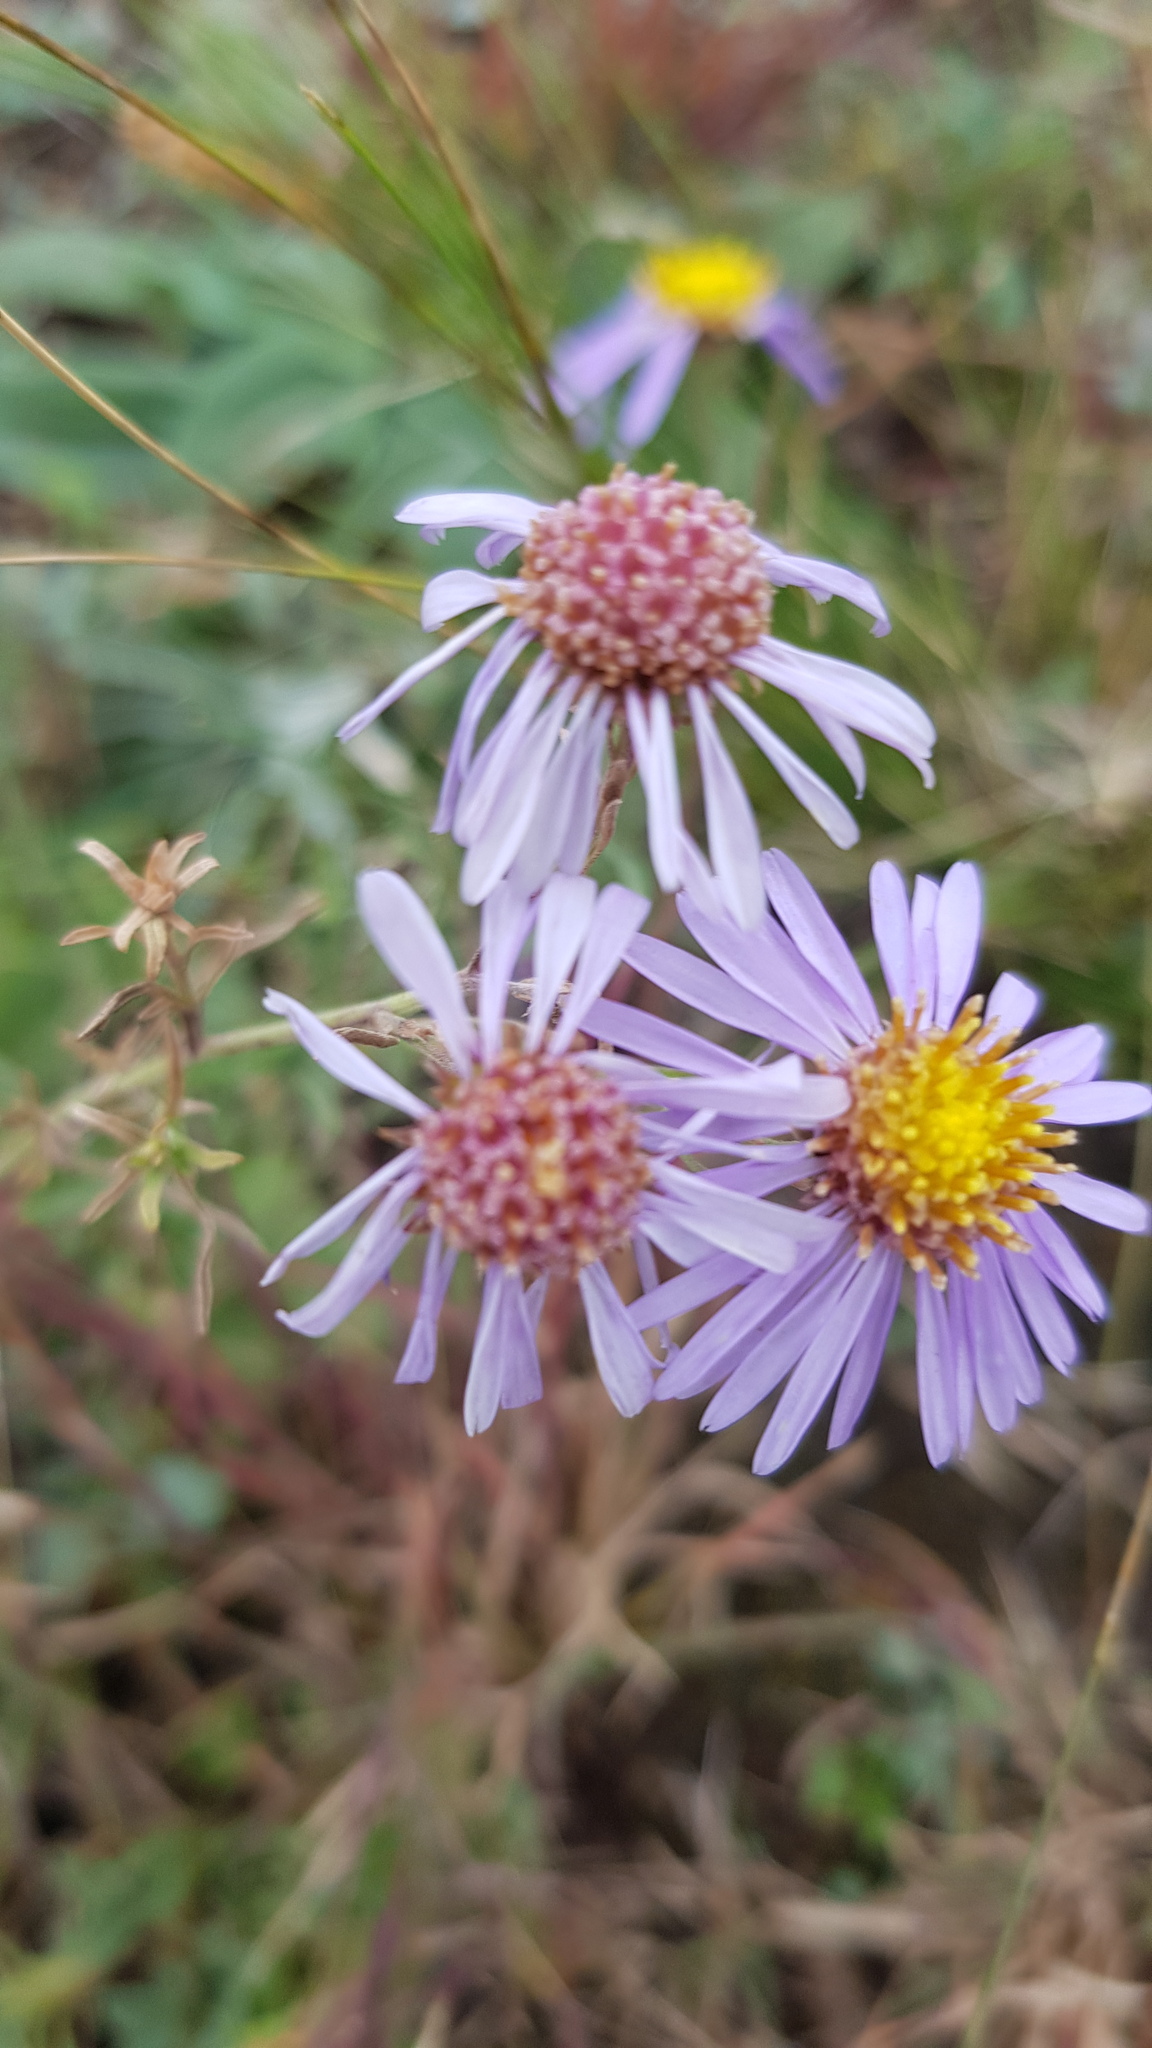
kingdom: Plantae
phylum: Tracheophyta
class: Magnoliopsida
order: Asterales
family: Asteraceae
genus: Heteropappus
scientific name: Heteropappus altaicus
